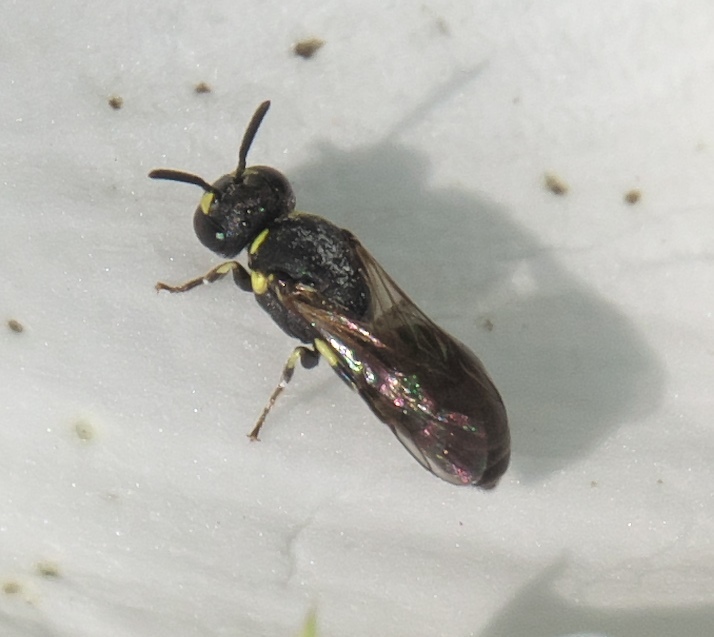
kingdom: Animalia
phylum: Arthropoda
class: Insecta
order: Hymenoptera
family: Colletidae
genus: Hylaeus
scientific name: Hylaeus affinis
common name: Eastern masked bee
